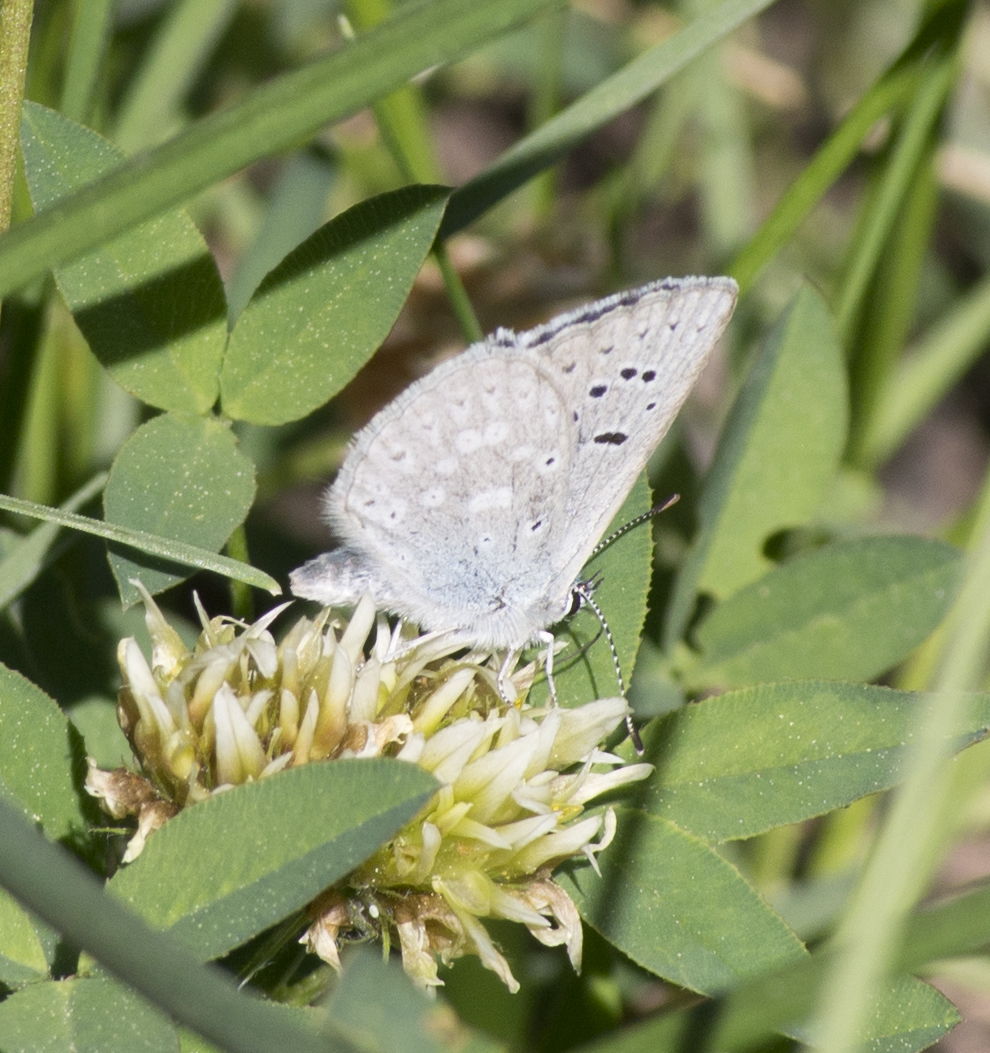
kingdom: Animalia
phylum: Arthropoda
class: Insecta
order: Lepidoptera
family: Lycaenidae
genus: Icaricia
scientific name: Icaricia icarioides
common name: Boisduval's blue
